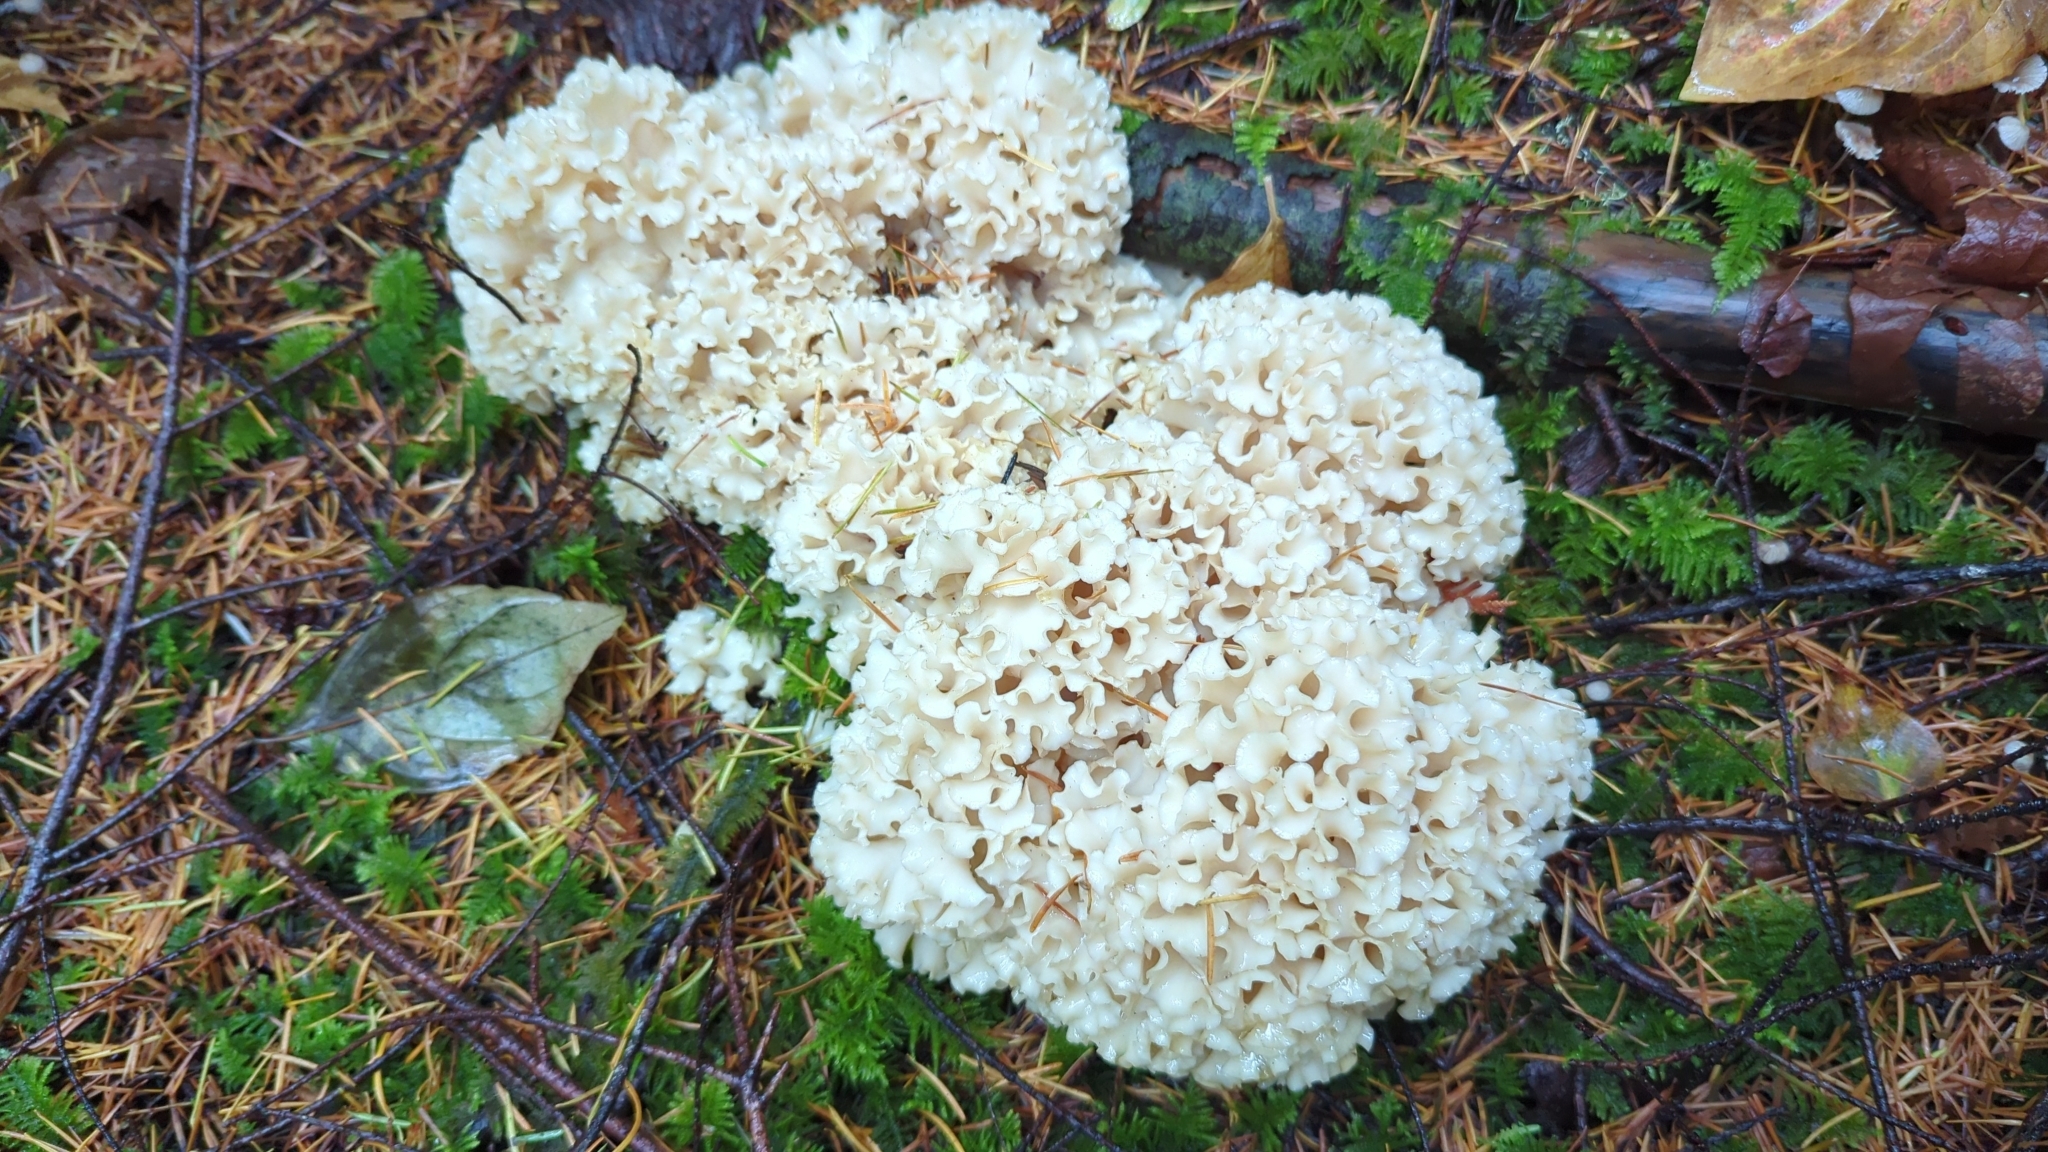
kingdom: Fungi
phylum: Basidiomycota
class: Agaricomycetes
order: Polyporales
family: Sparassidaceae
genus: Sparassis
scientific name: Sparassis radicata
